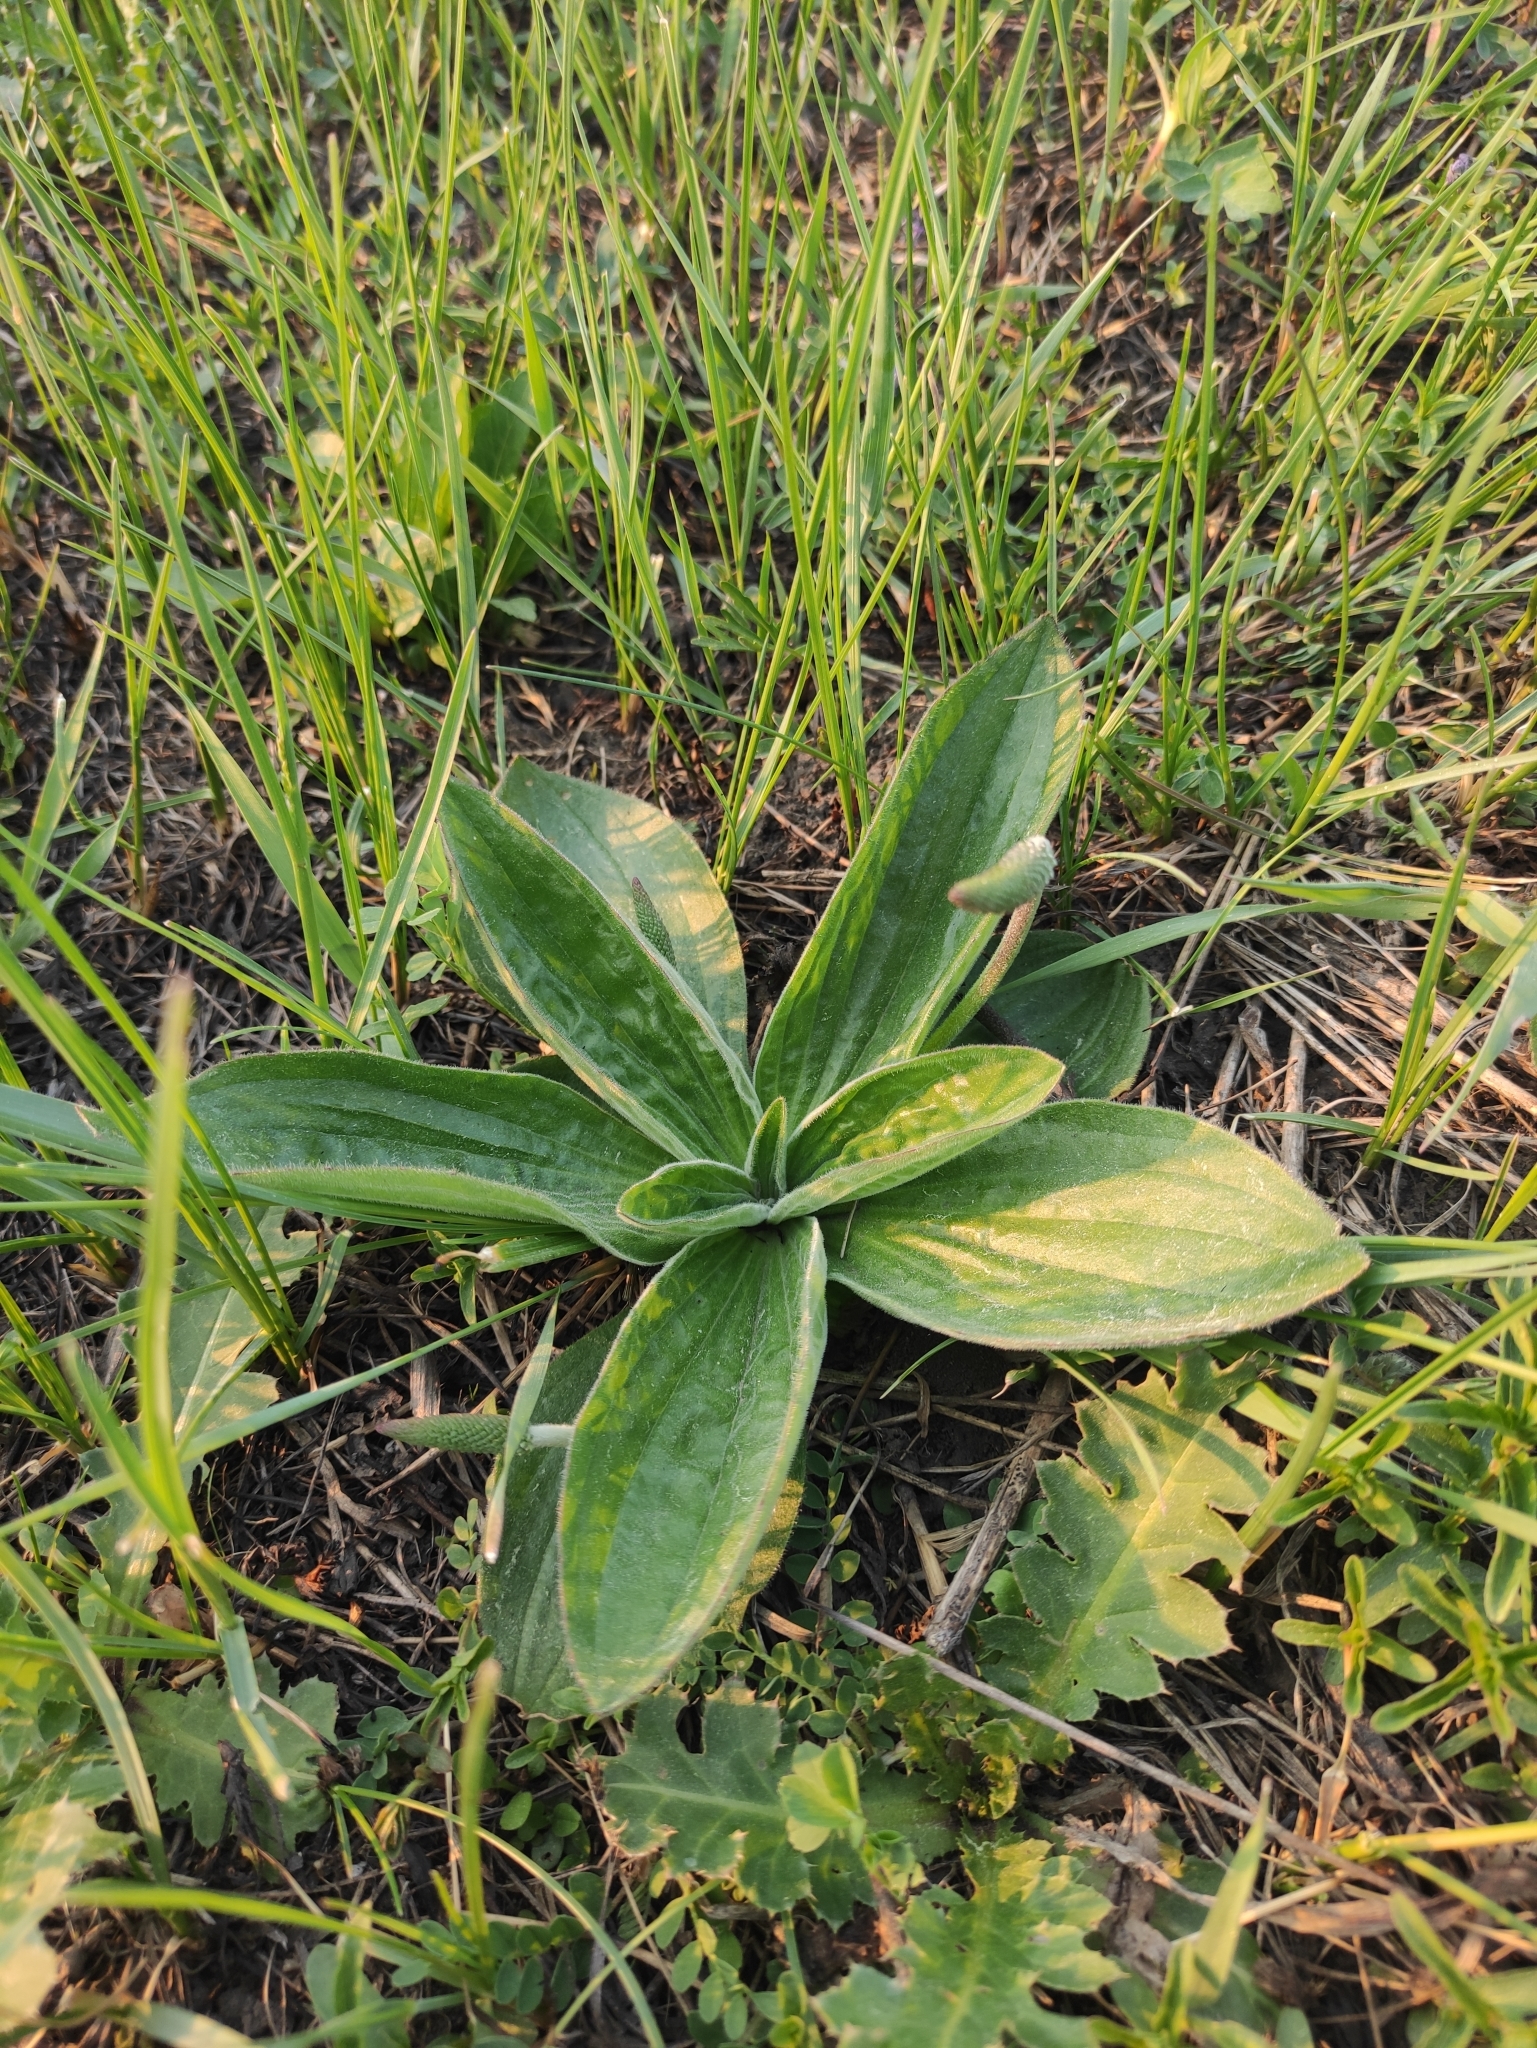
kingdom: Plantae
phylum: Tracheophyta
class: Magnoliopsida
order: Lamiales
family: Plantaginaceae
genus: Plantago
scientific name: Plantago media
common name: Hoary plantain
